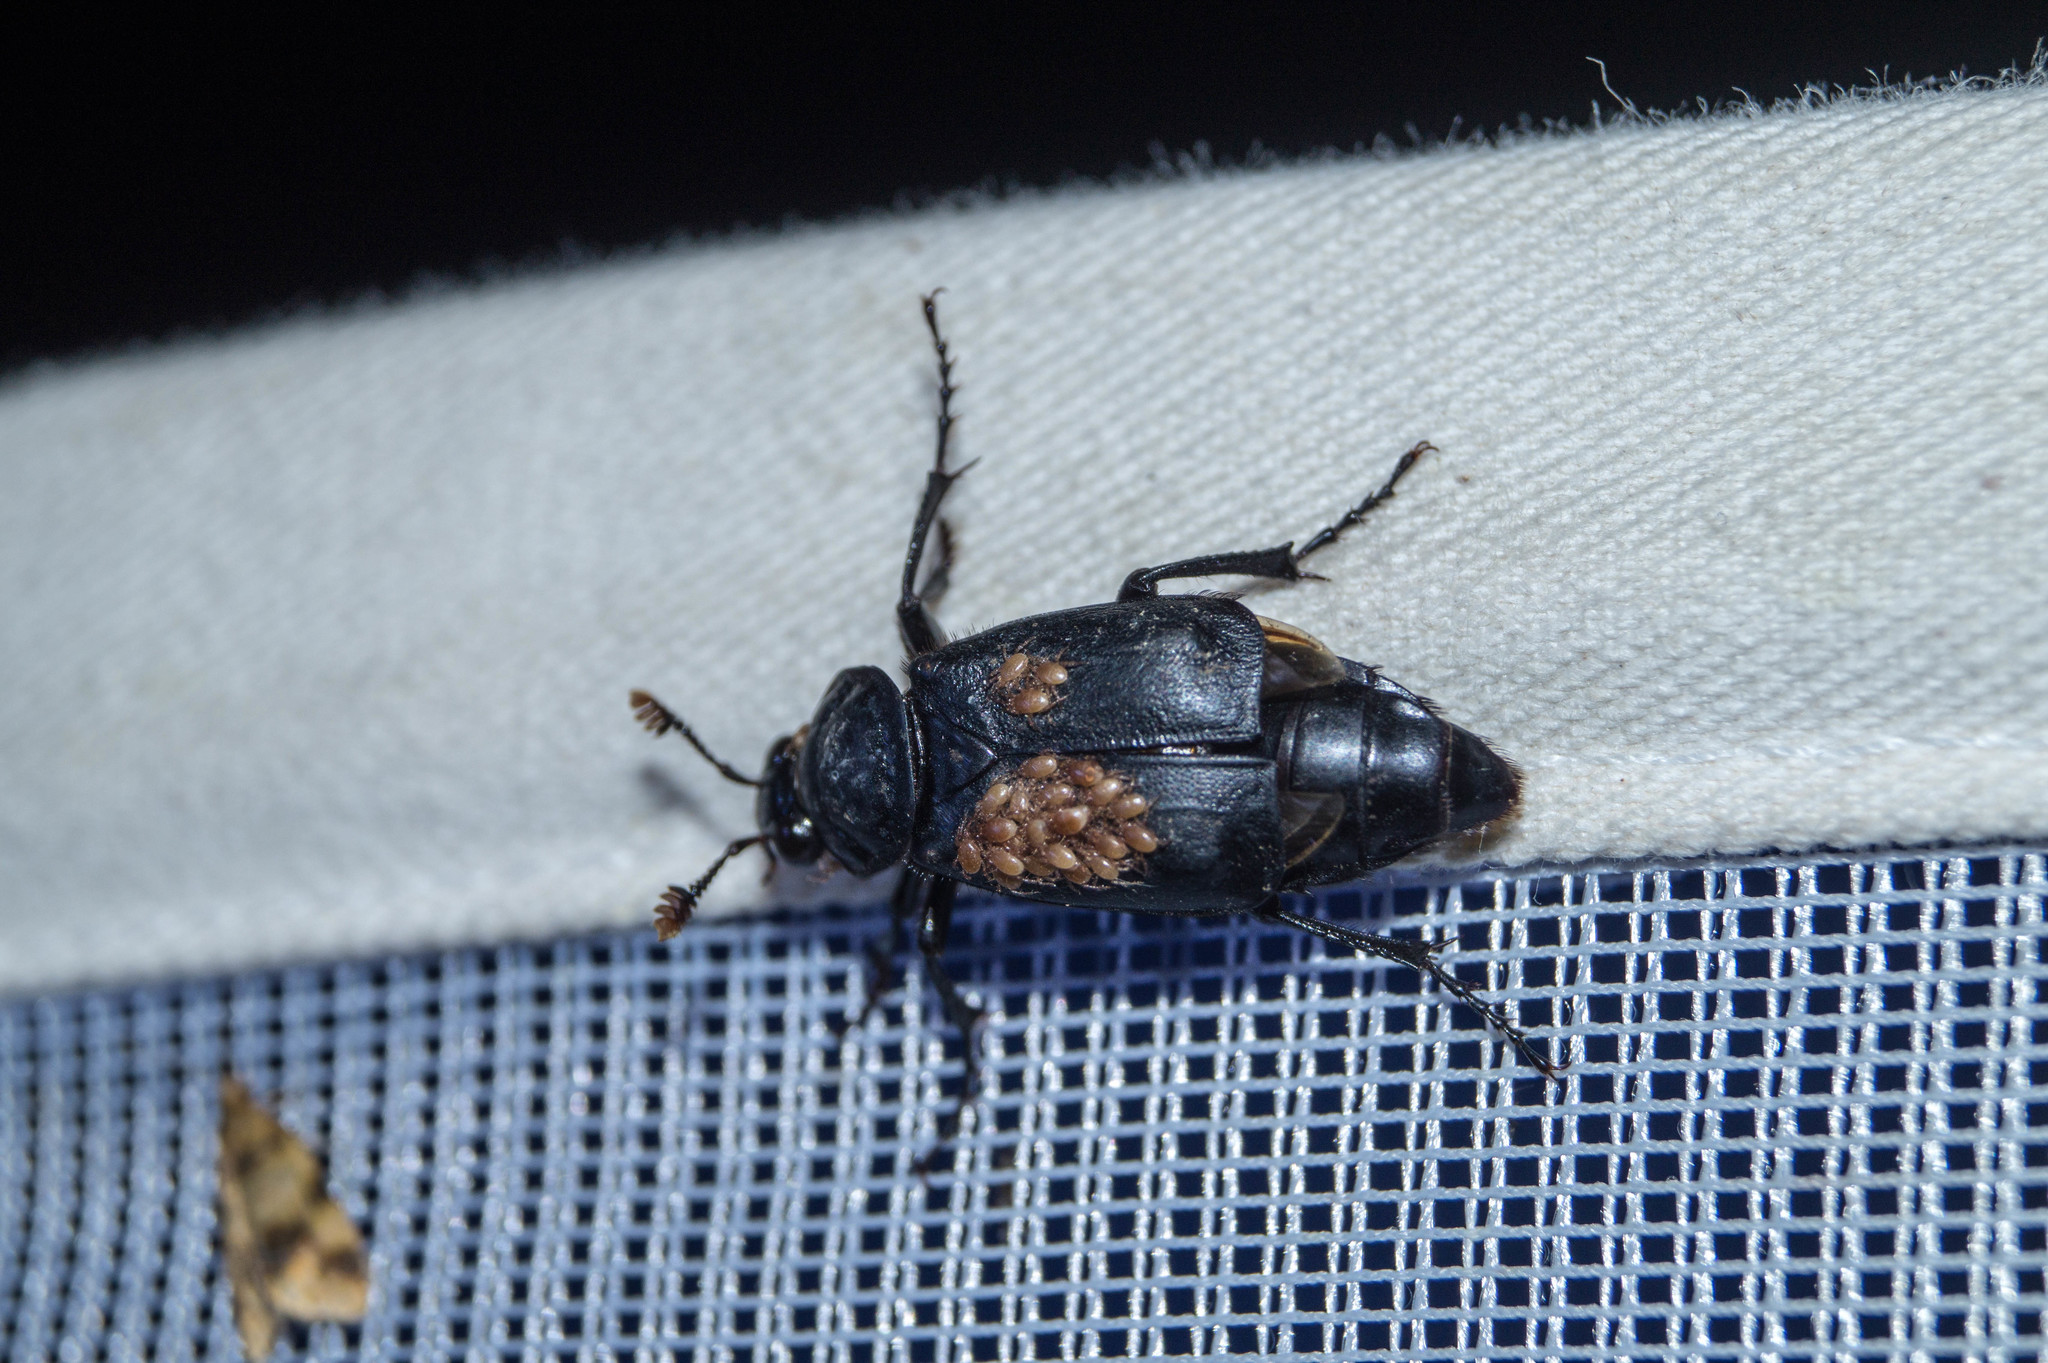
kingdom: Animalia
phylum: Arthropoda
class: Insecta
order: Coleoptera
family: Staphylinidae
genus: Nicrophorus
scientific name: Nicrophorus humator
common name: Black sexton beetle
